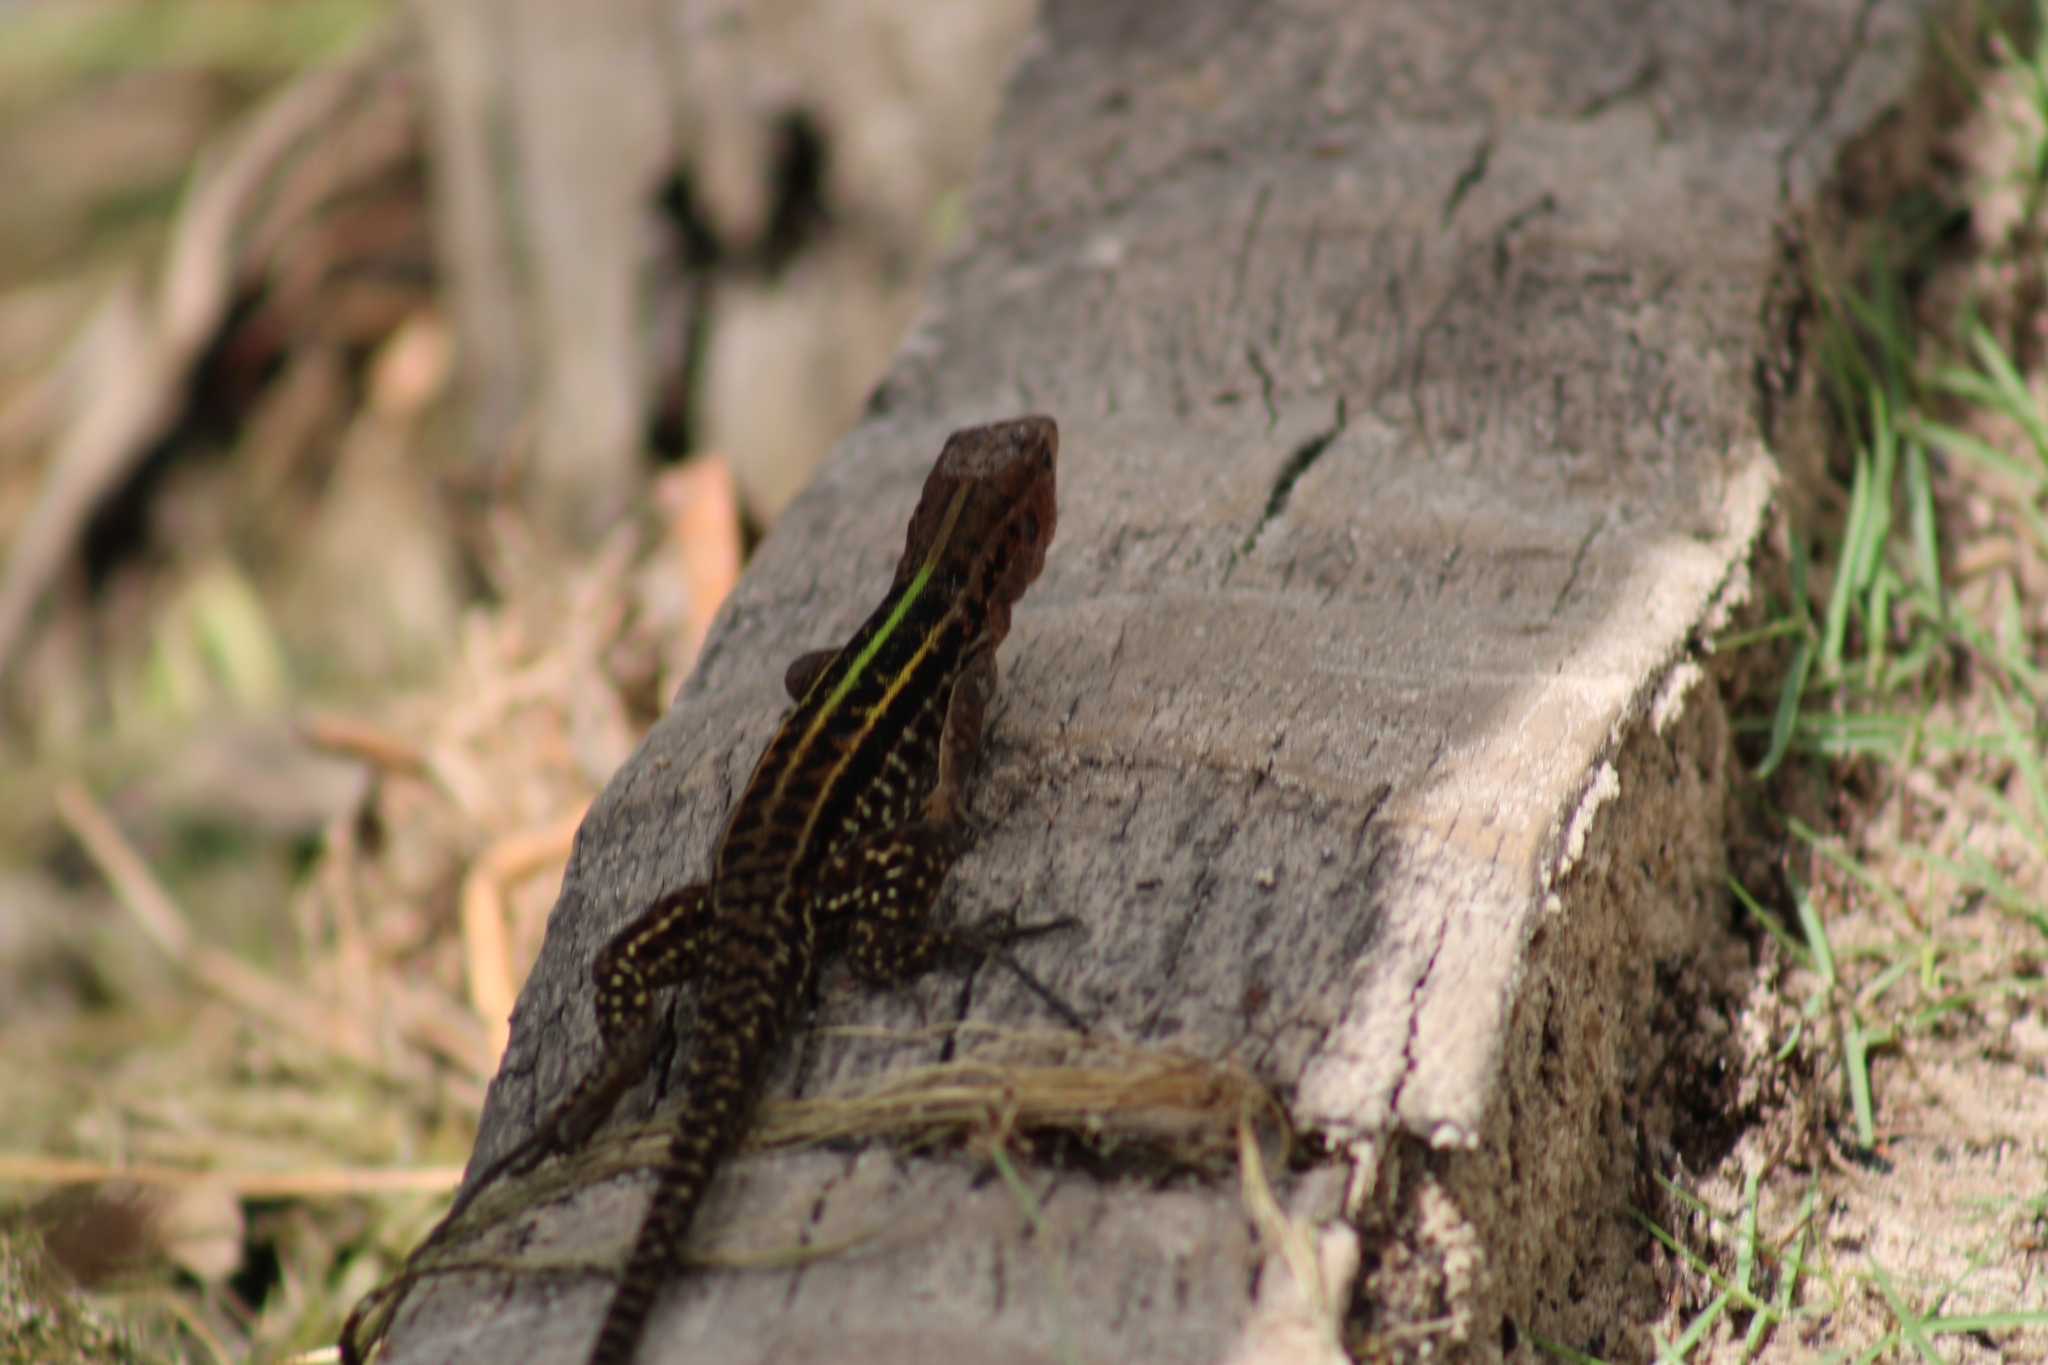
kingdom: Animalia
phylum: Chordata
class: Squamata
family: Teiidae
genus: Kentropyx
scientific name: Kentropyx calcarata
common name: Striped forest whiptail
